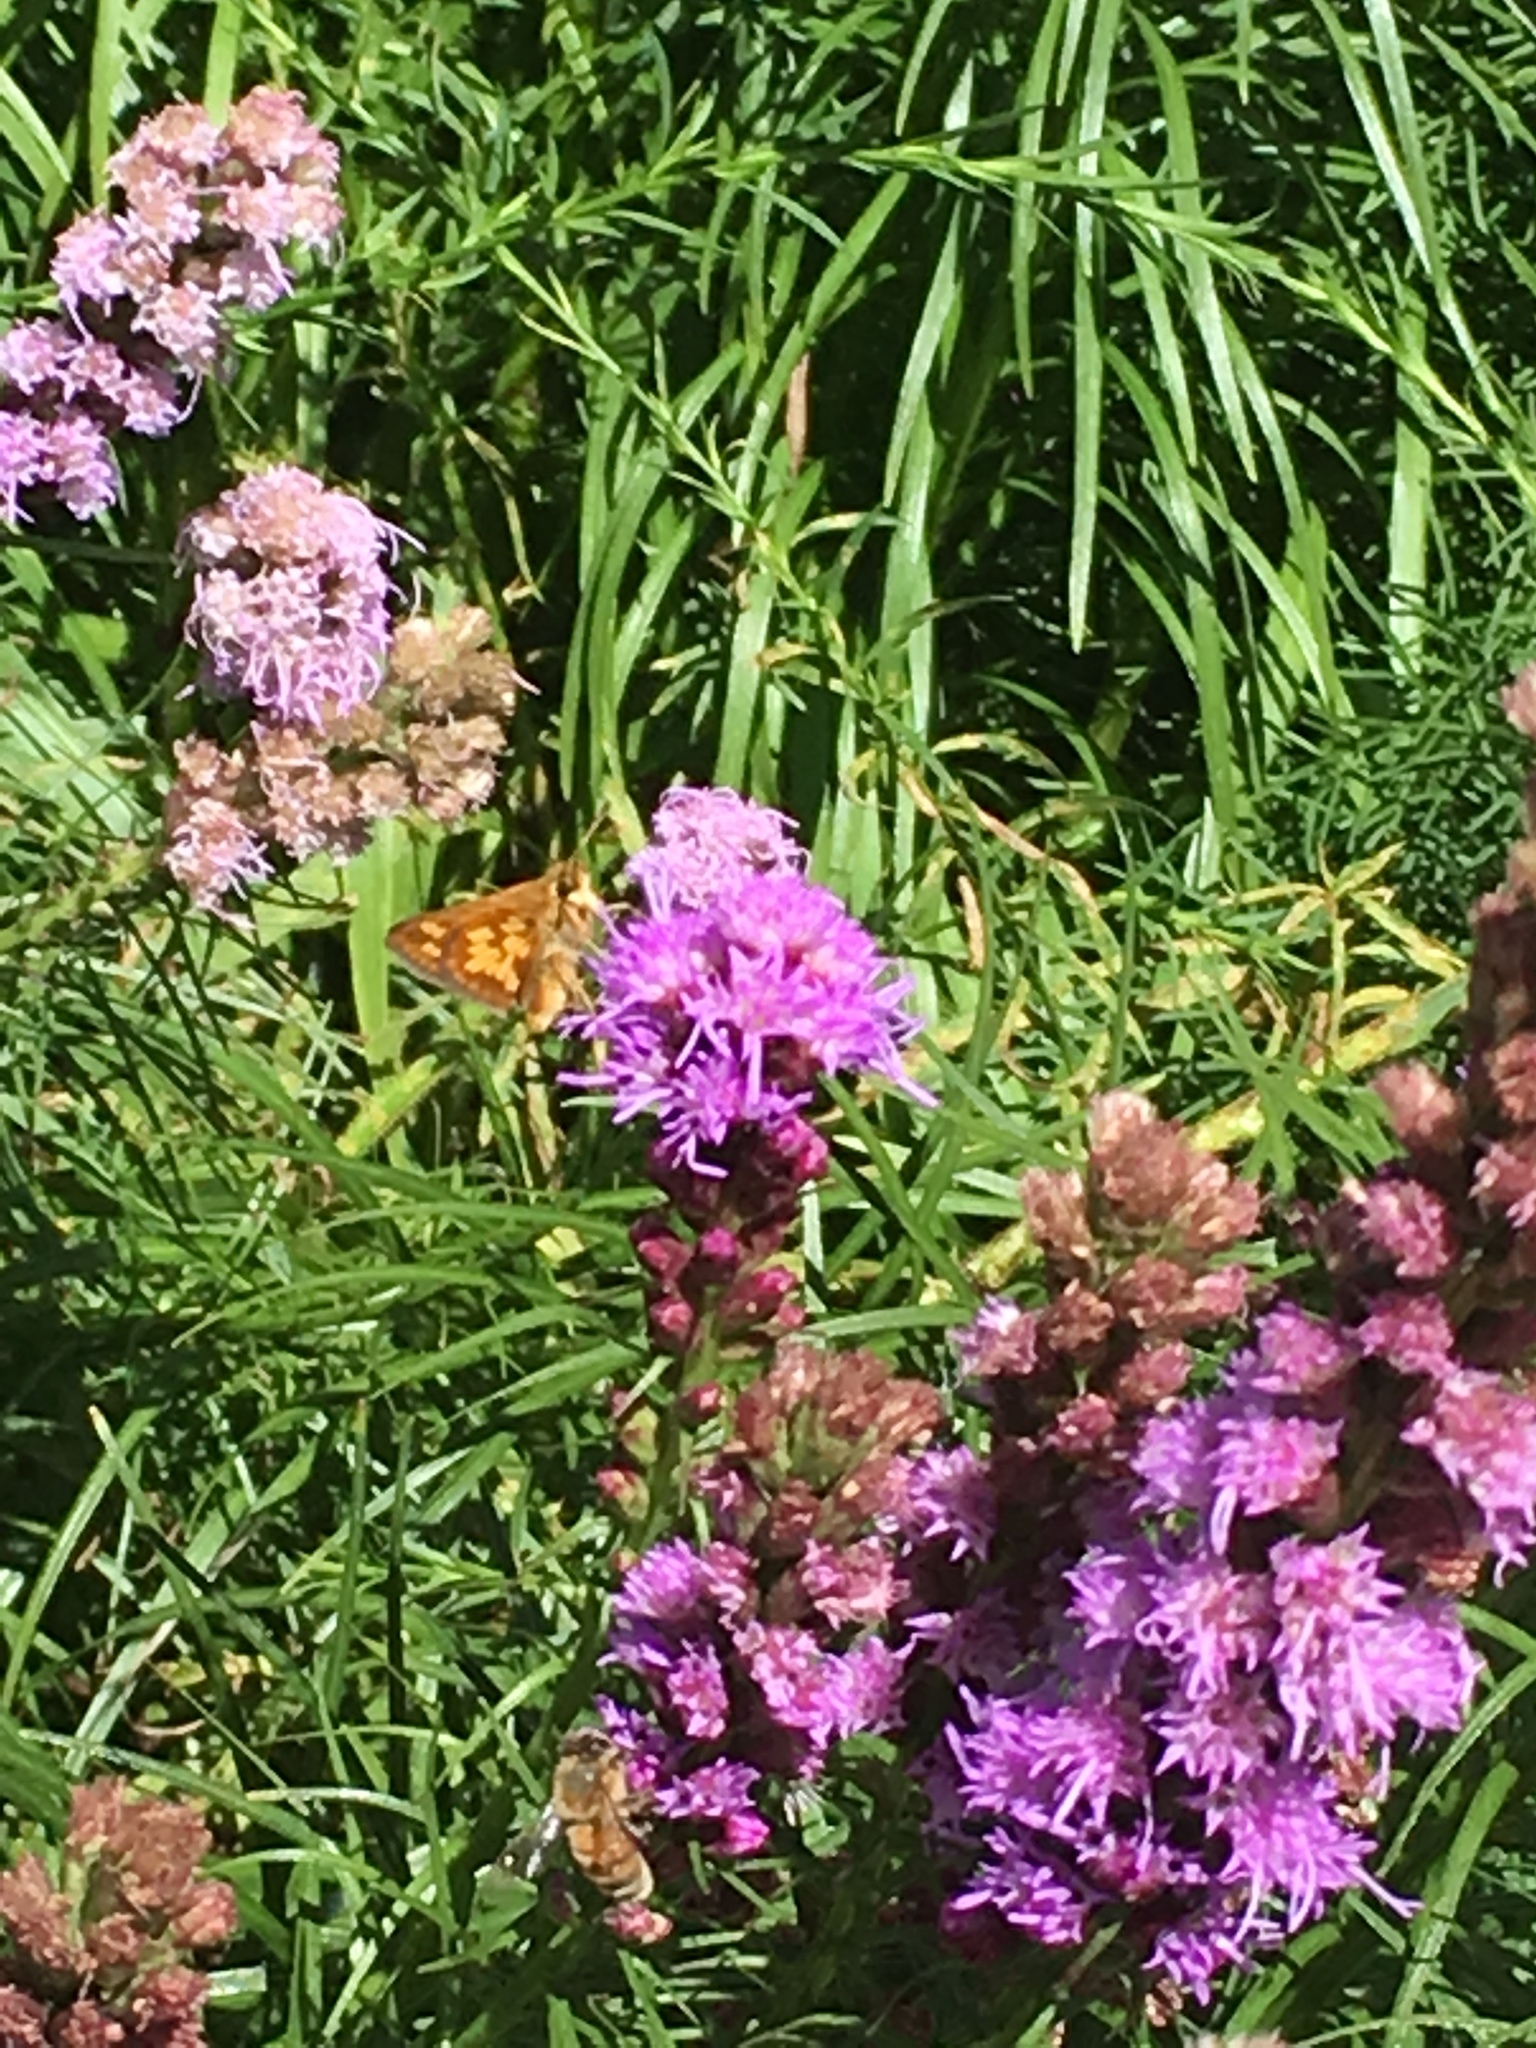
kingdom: Animalia
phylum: Arthropoda
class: Insecta
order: Lepidoptera
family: Hesperiidae
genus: Polites
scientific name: Polites coras
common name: Peck's skipper
